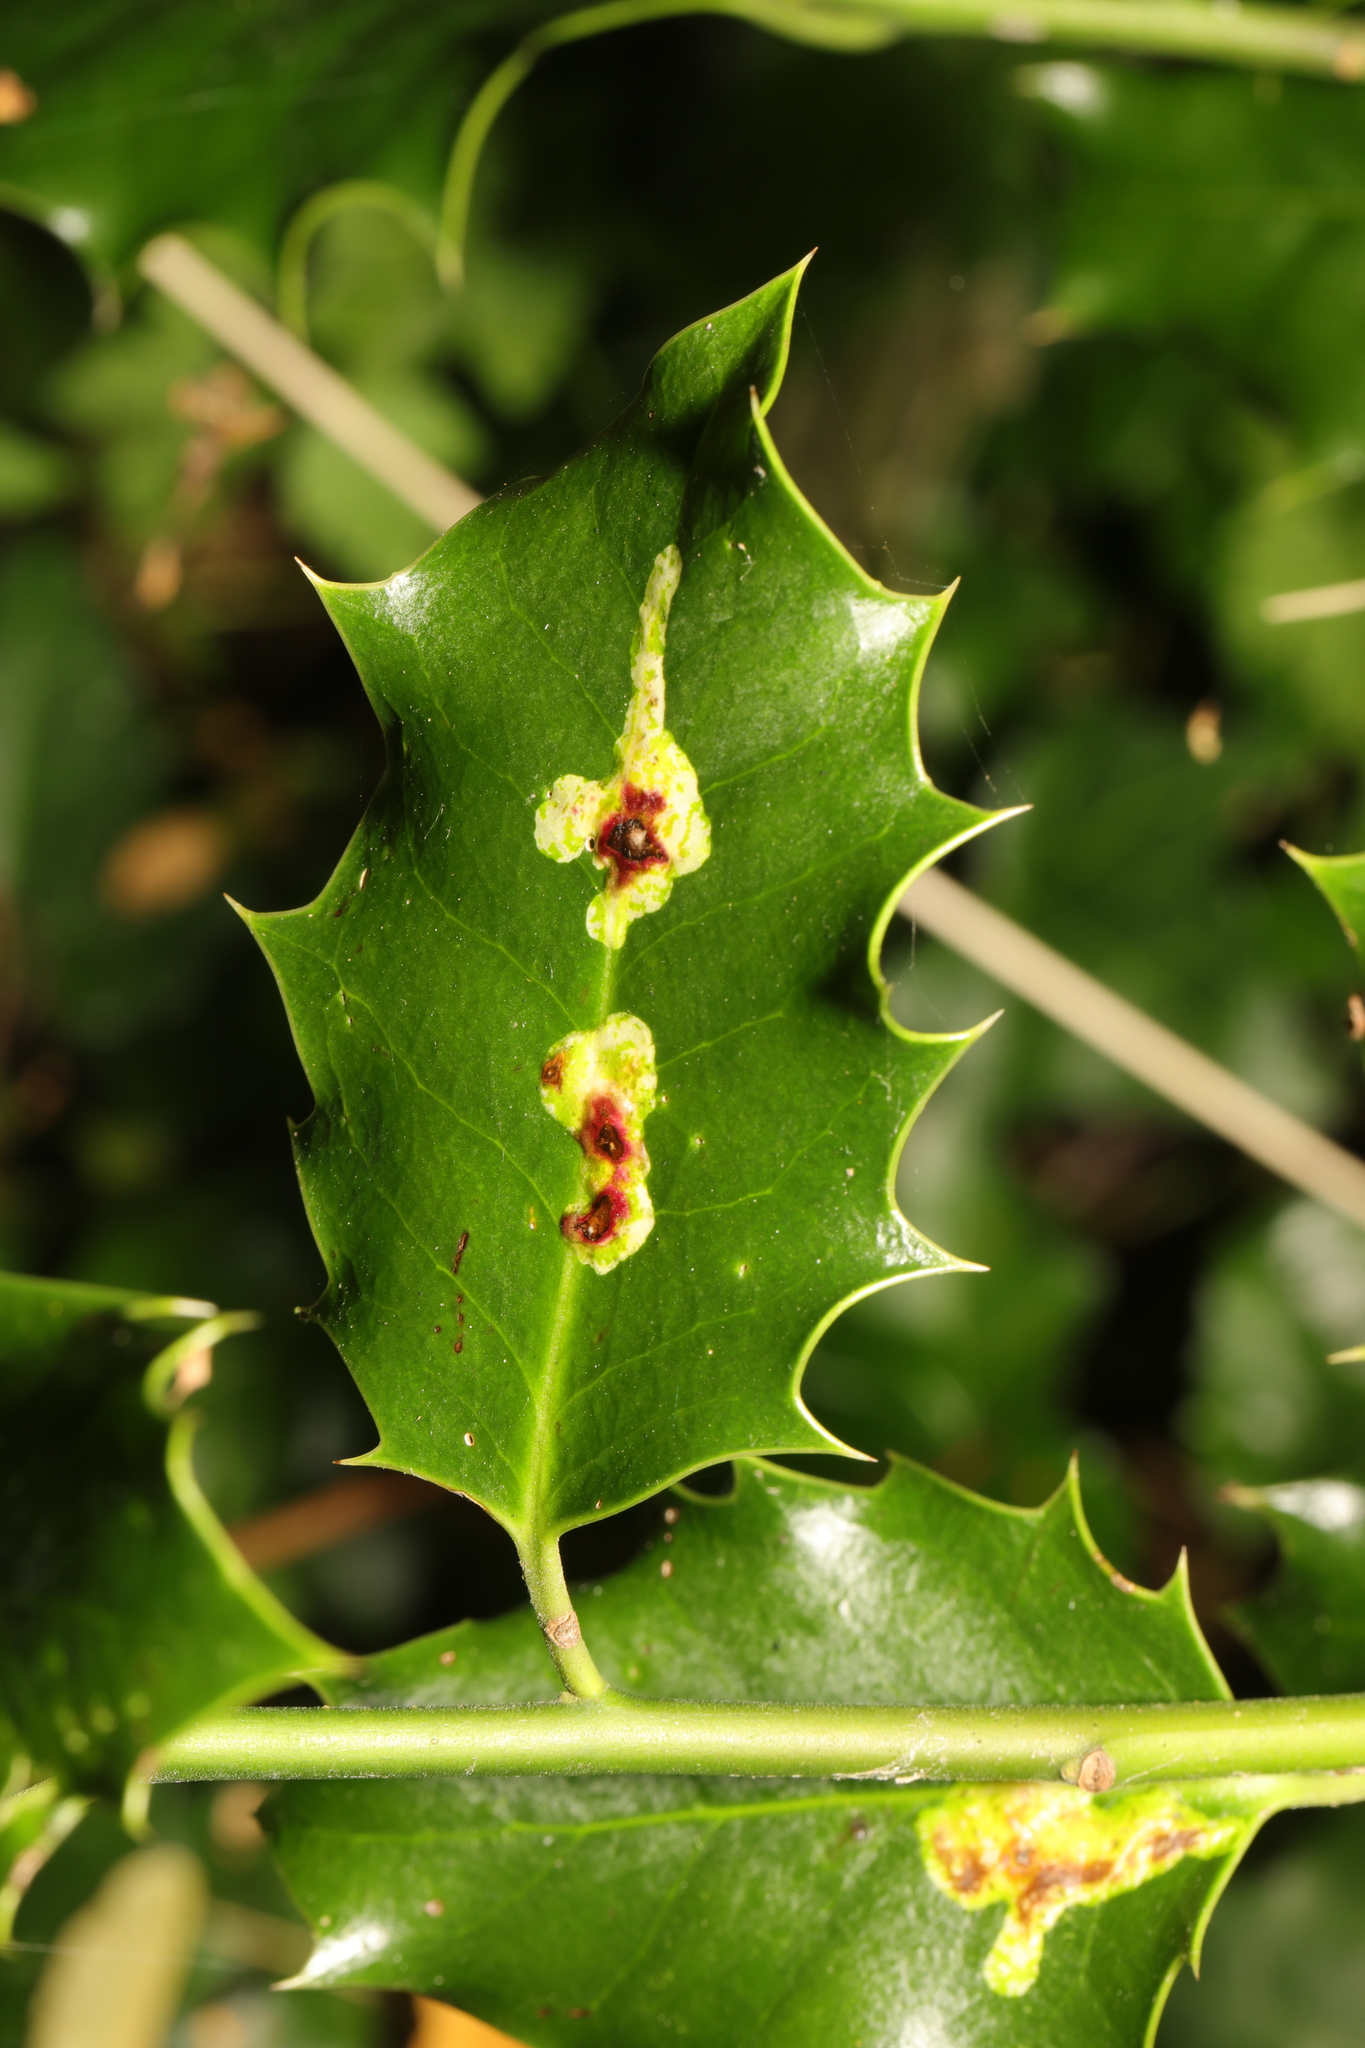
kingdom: Animalia
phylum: Arthropoda
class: Insecta
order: Diptera
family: Agromyzidae
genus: Phytomyza
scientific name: Phytomyza ilicis
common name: Holly leafminer
